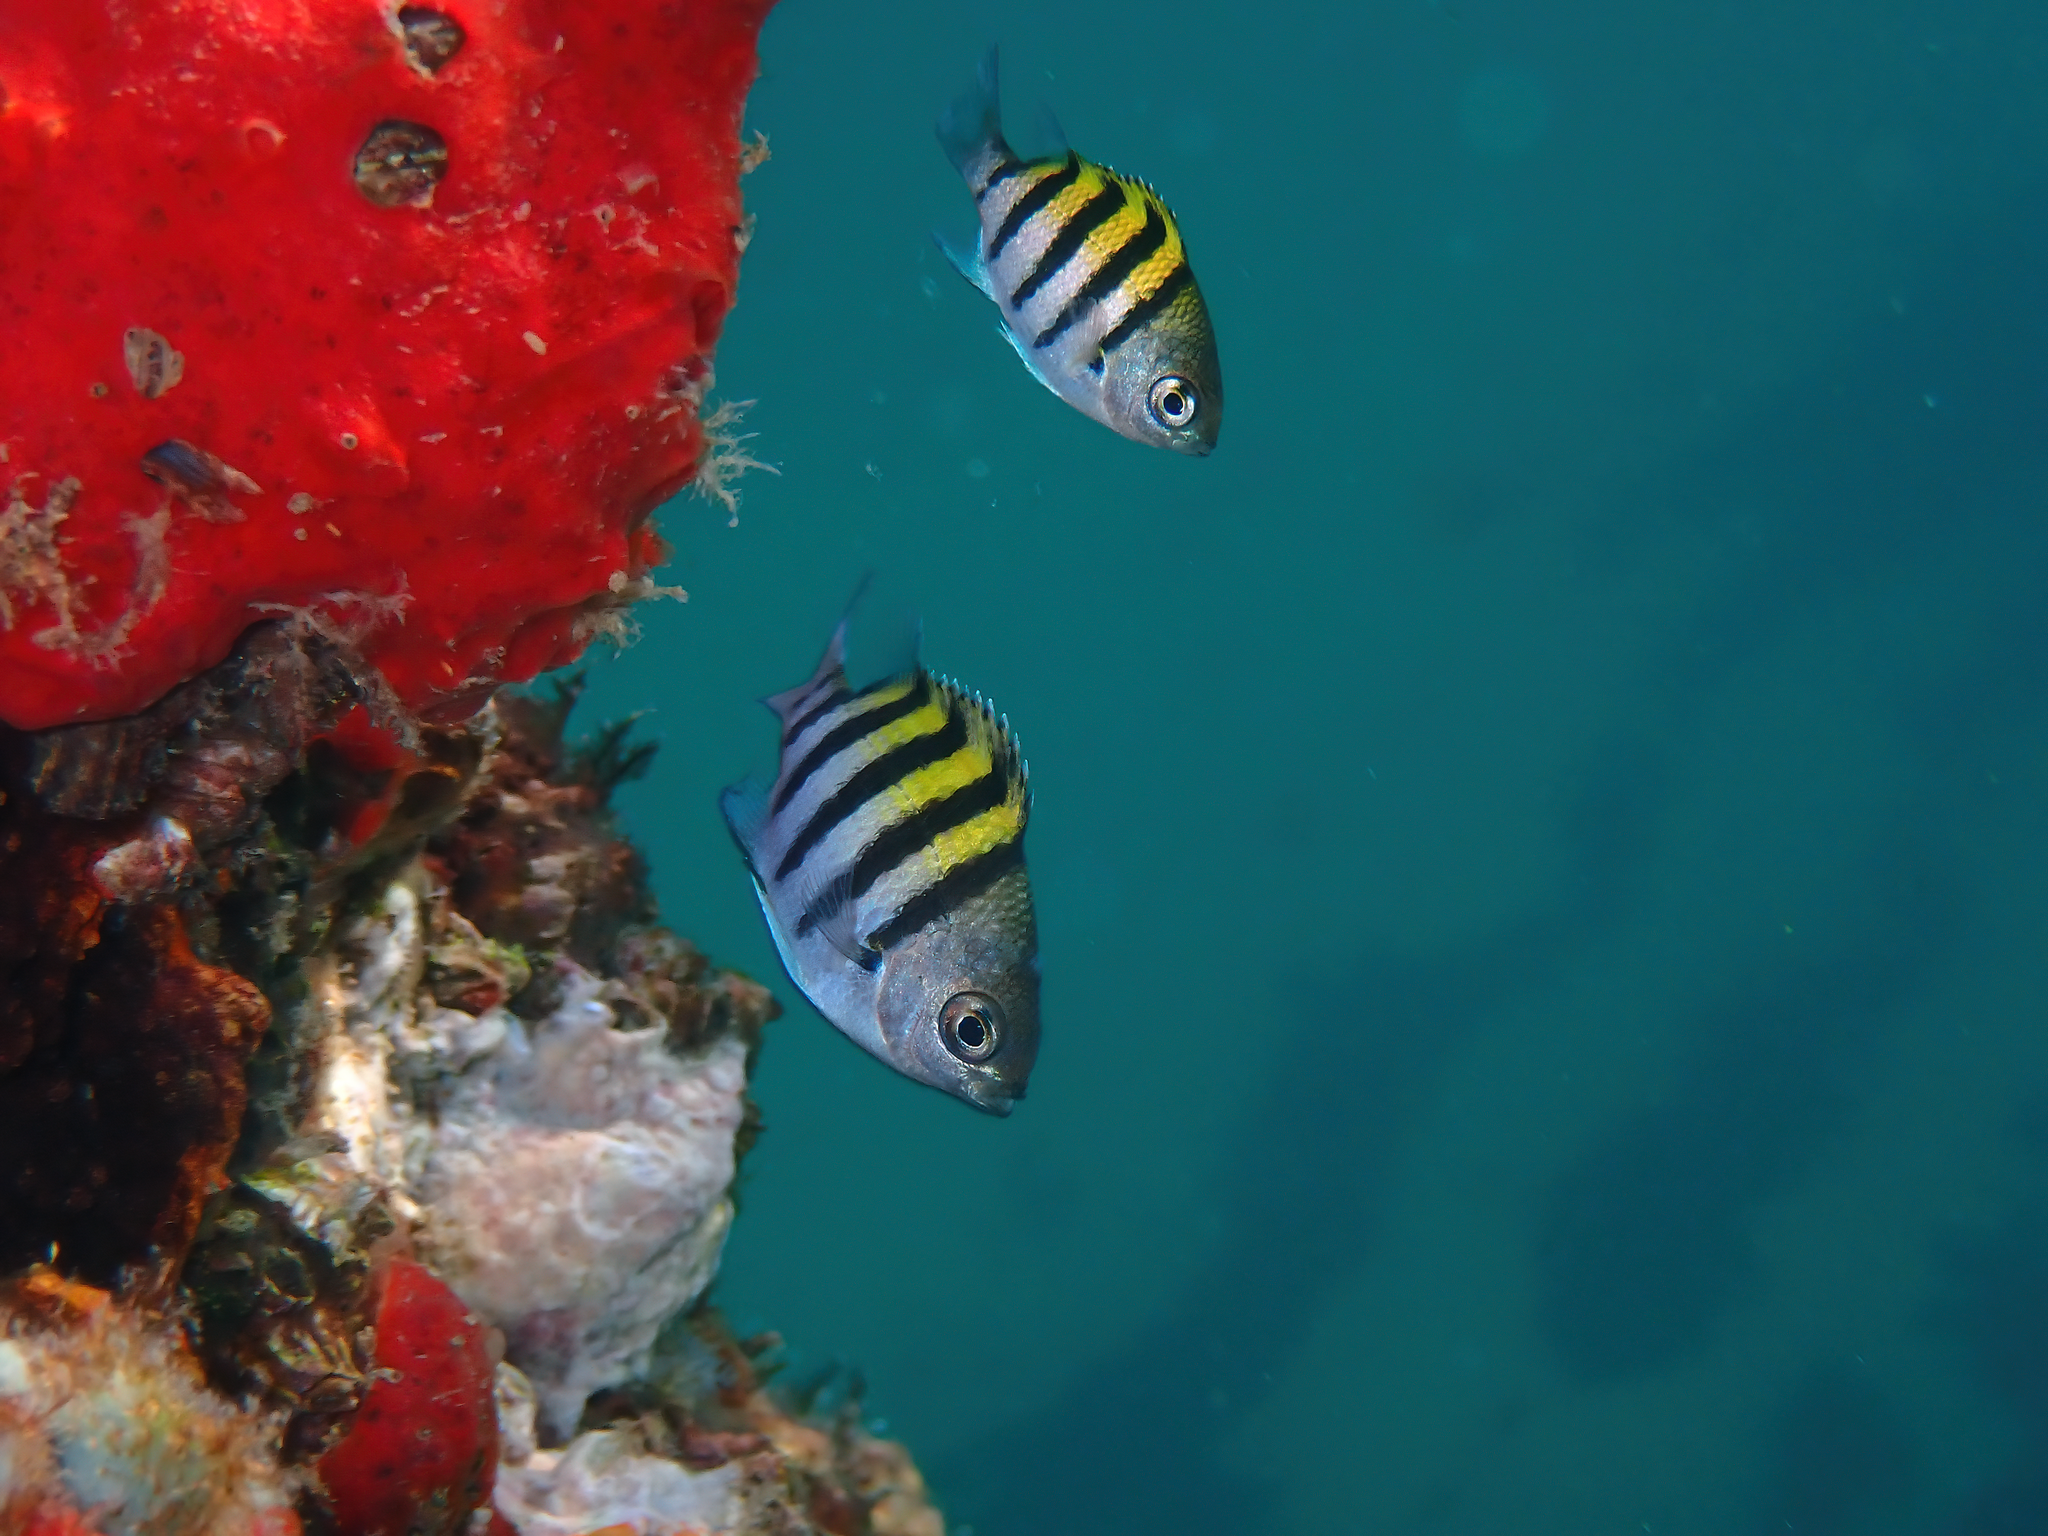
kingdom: Animalia
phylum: Chordata
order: Perciformes
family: Pomacentridae
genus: Abudefduf
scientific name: Abudefduf saxatilis
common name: Sergeant major
